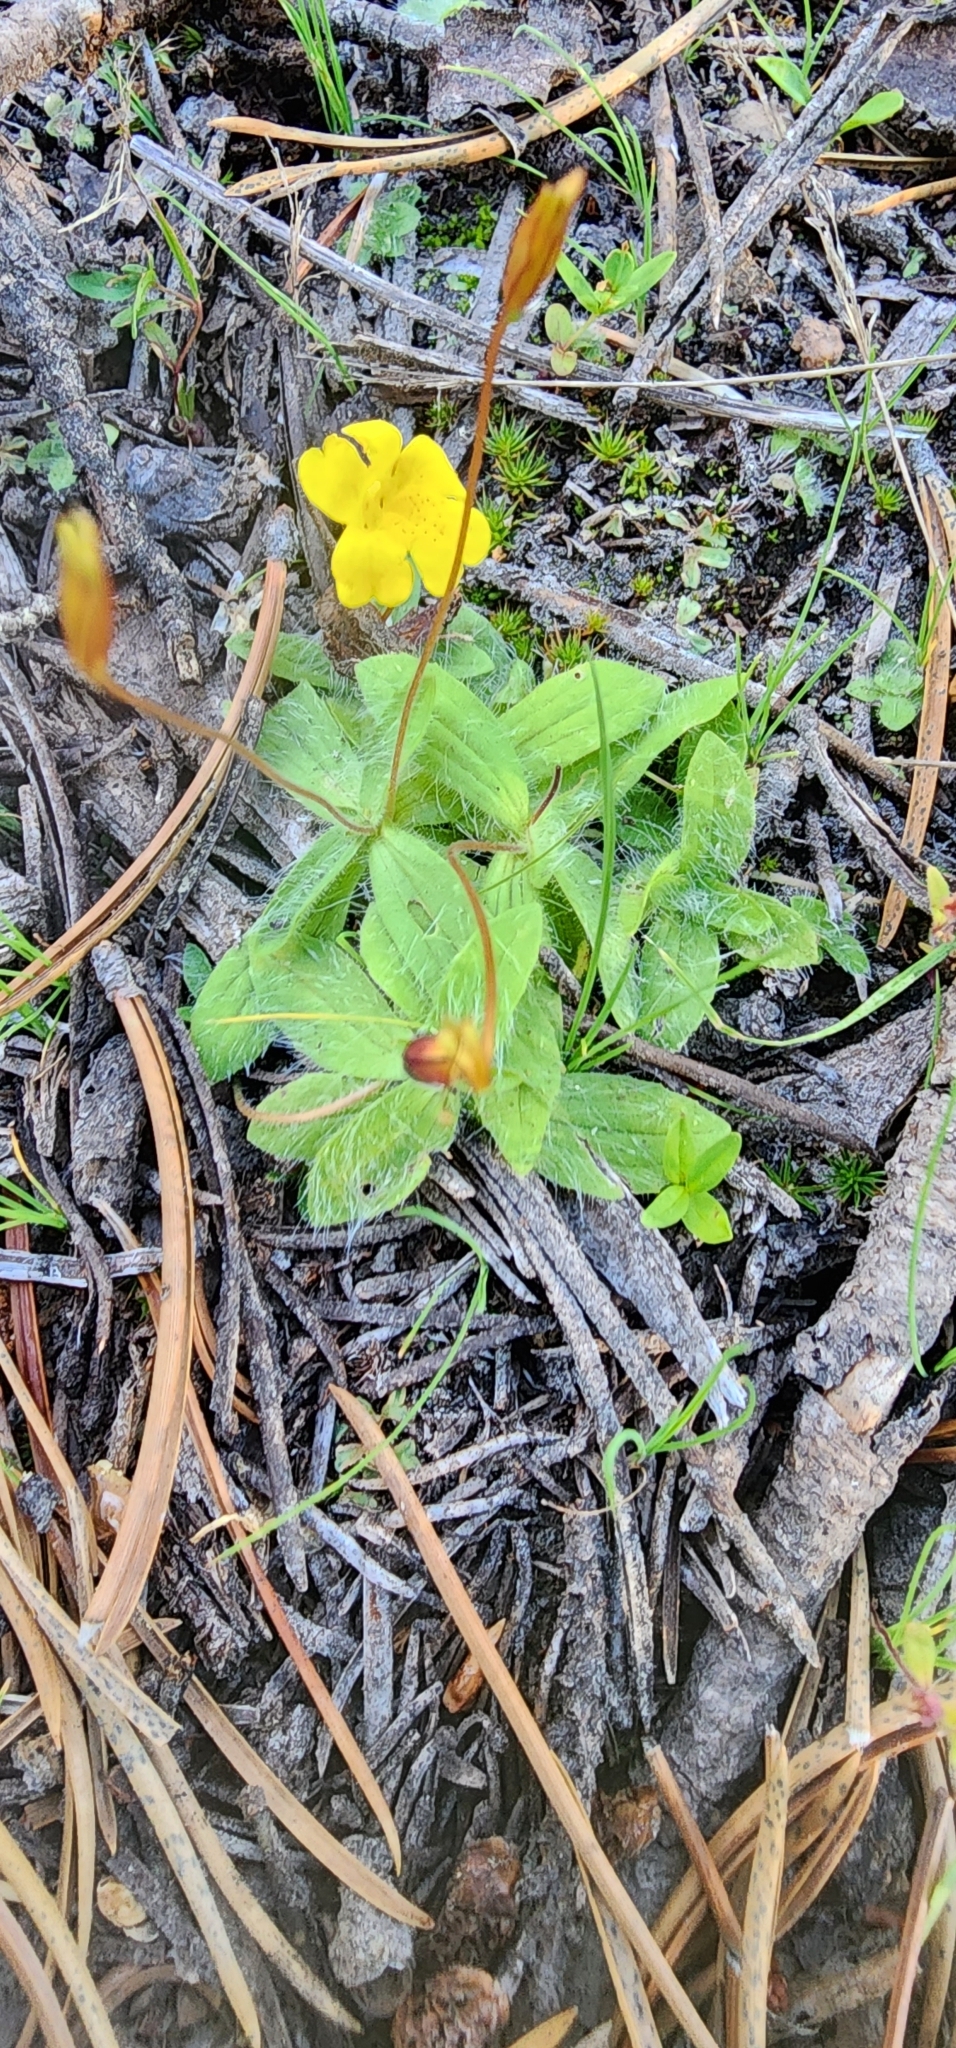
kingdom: Plantae
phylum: Tracheophyta
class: Magnoliopsida
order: Lamiales
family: Phrymaceae
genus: Erythranthe
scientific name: Erythranthe primuloides
